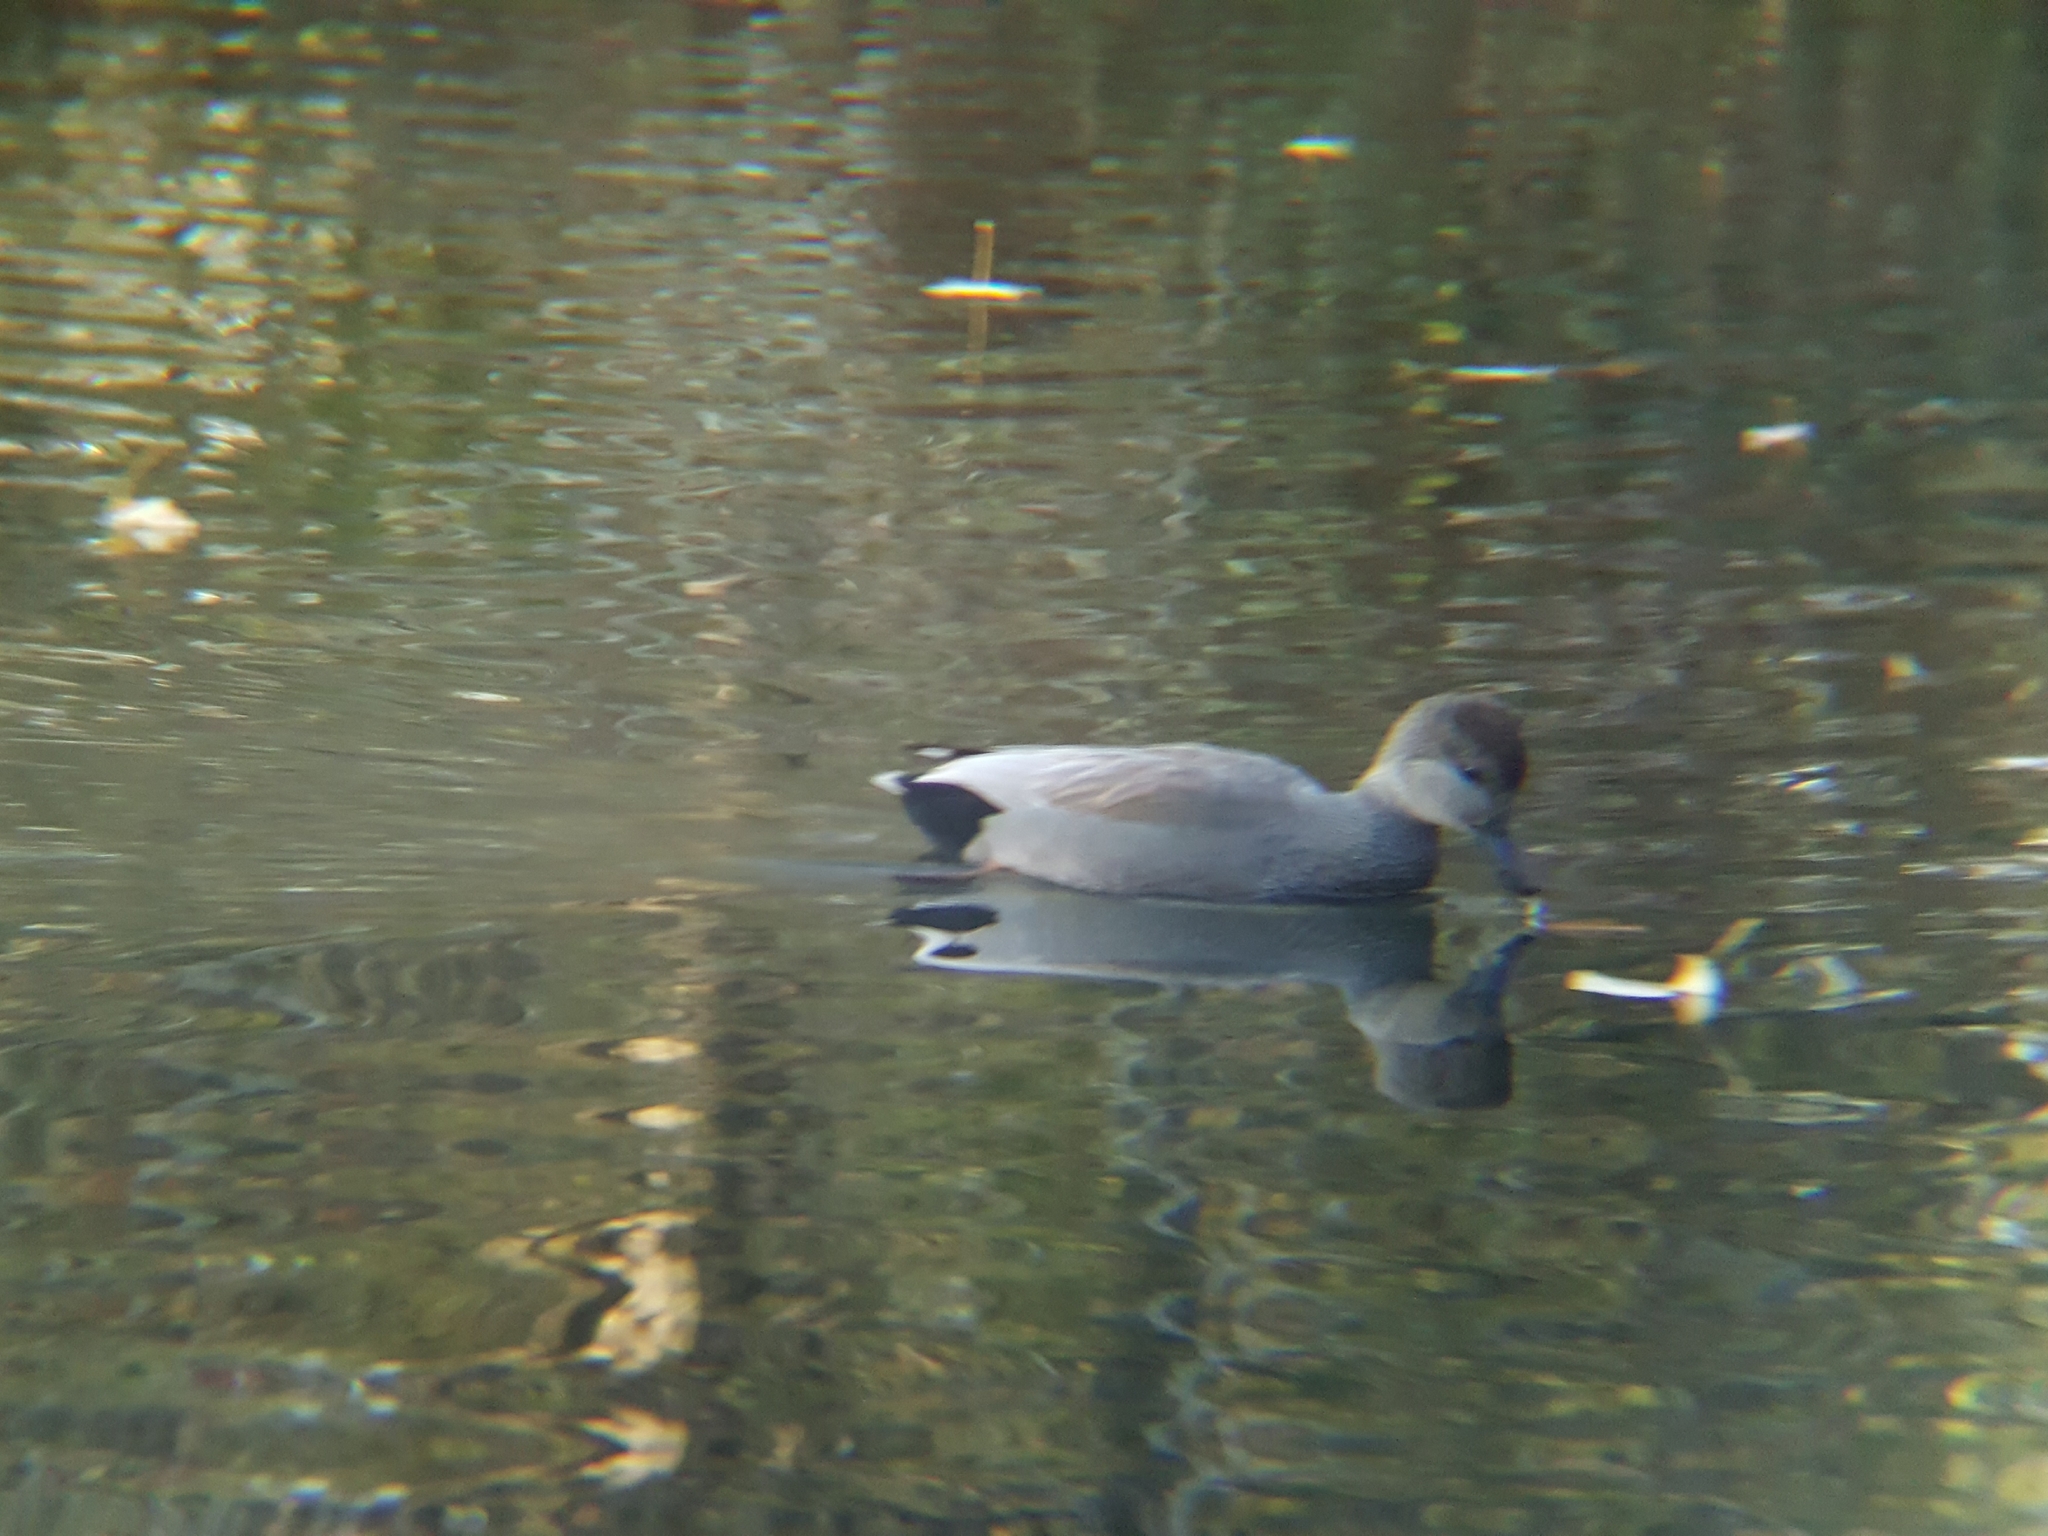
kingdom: Animalia
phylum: Chordata
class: Aves
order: Anseriformes
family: Anatidae
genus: Mareca
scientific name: Mareca strepera
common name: Gadwall
